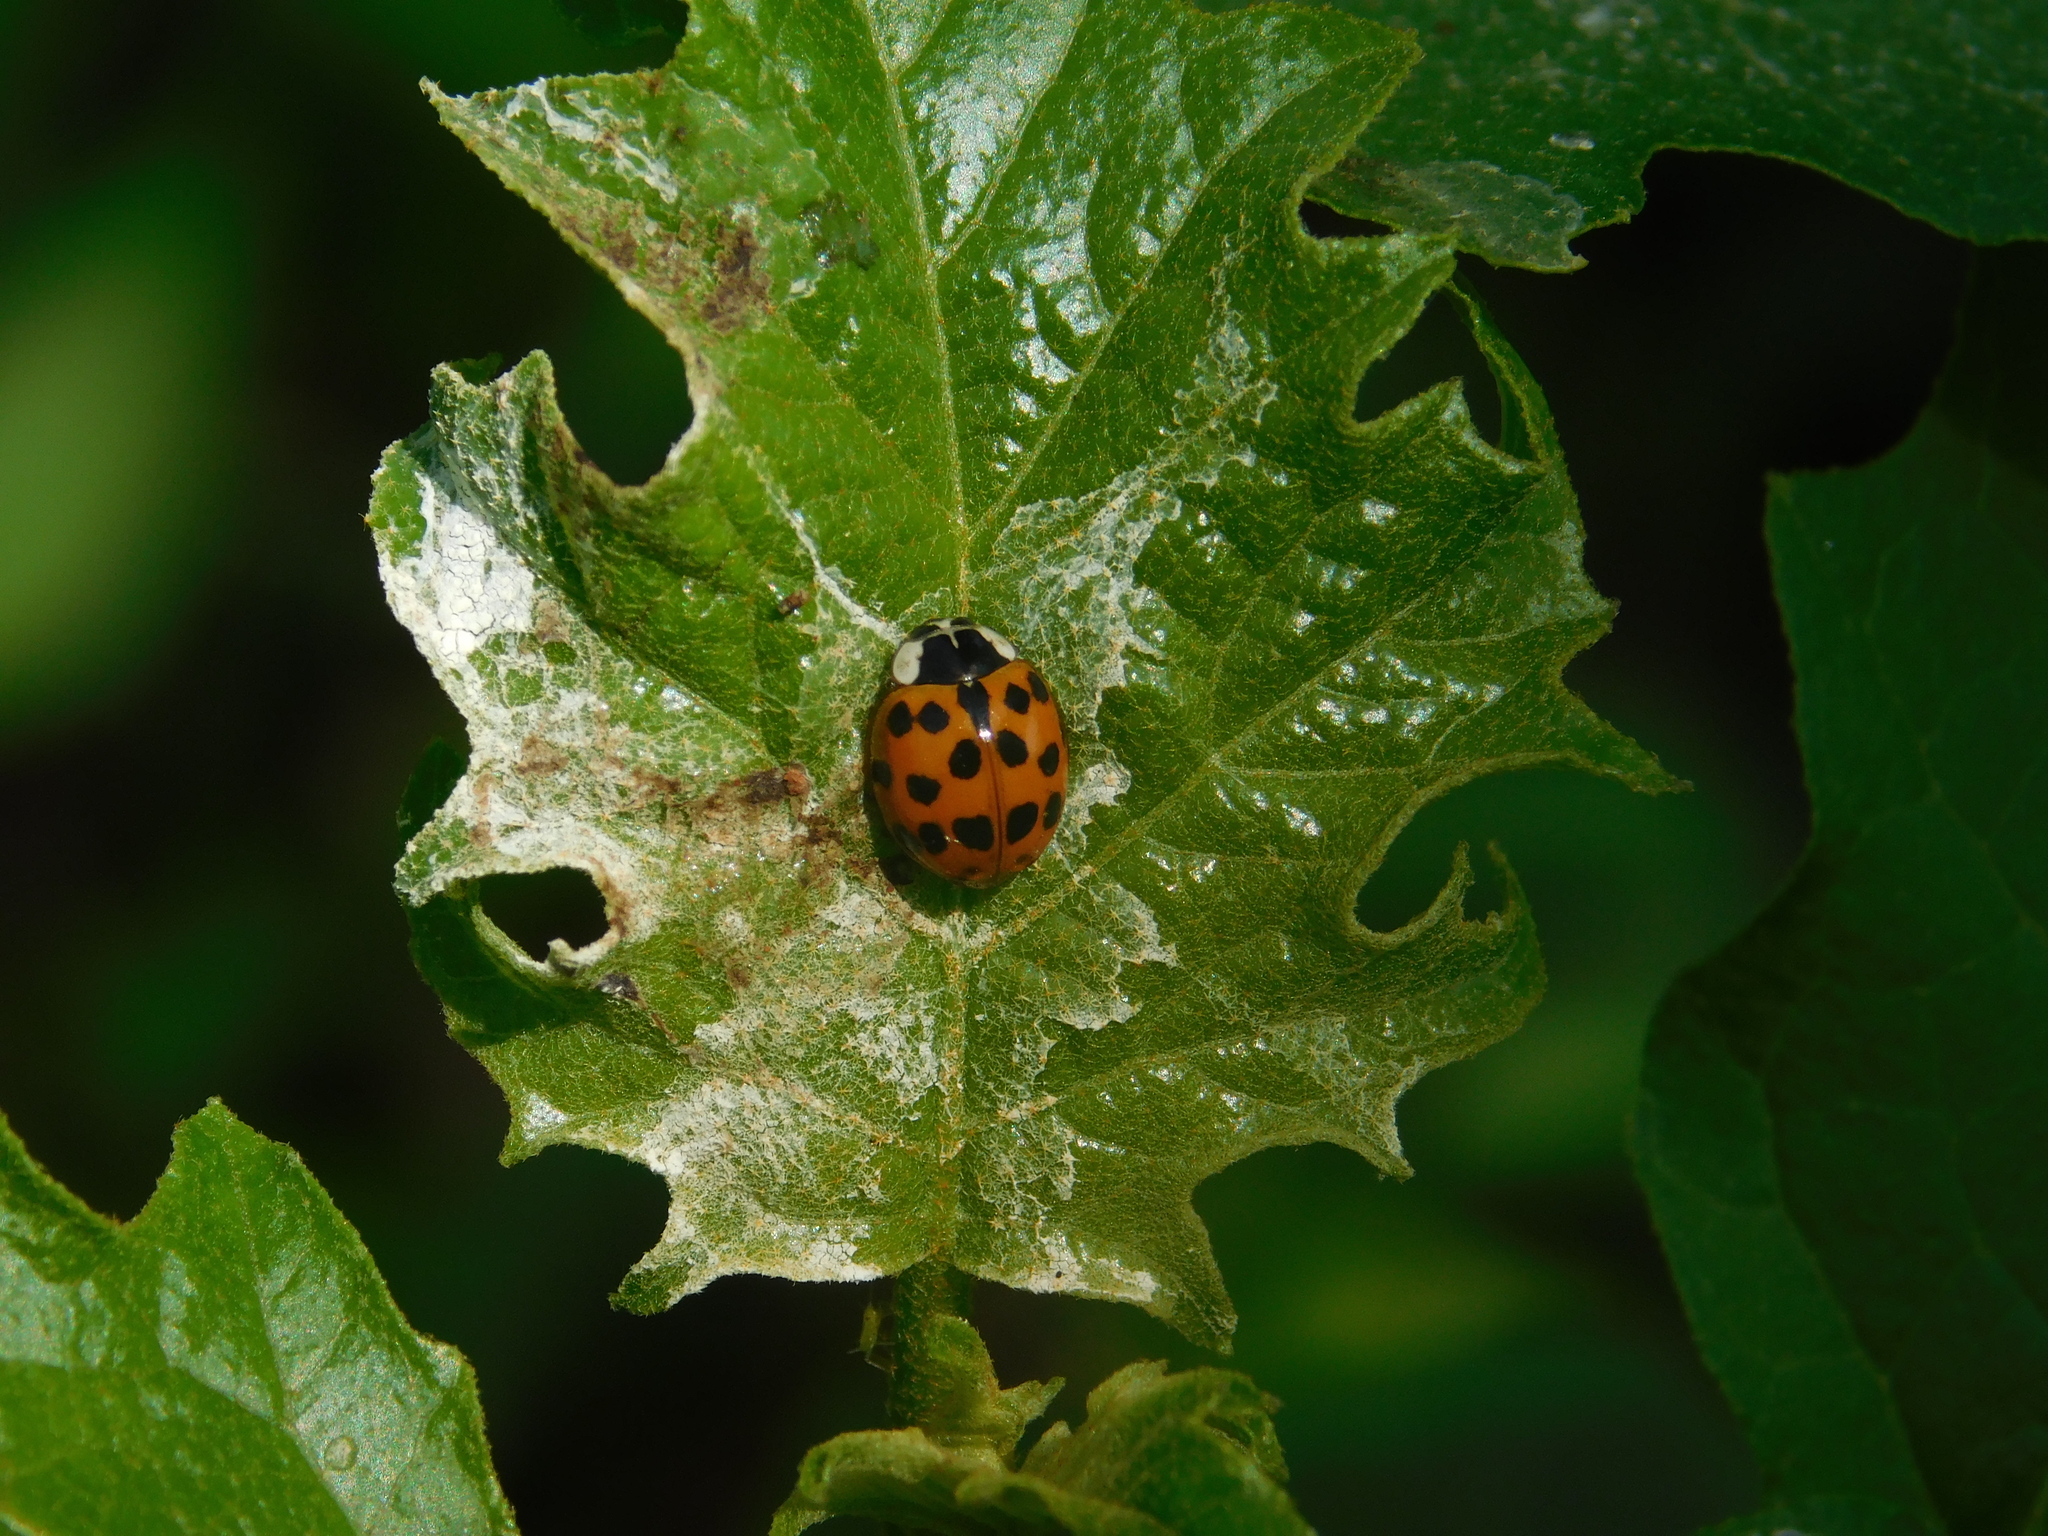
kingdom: Animalia
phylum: Arthropoda
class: Insecta
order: Coleoptera
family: Coccinellidae
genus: Harmonia
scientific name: Harmonia axyridis
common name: Harlequin ladybird
